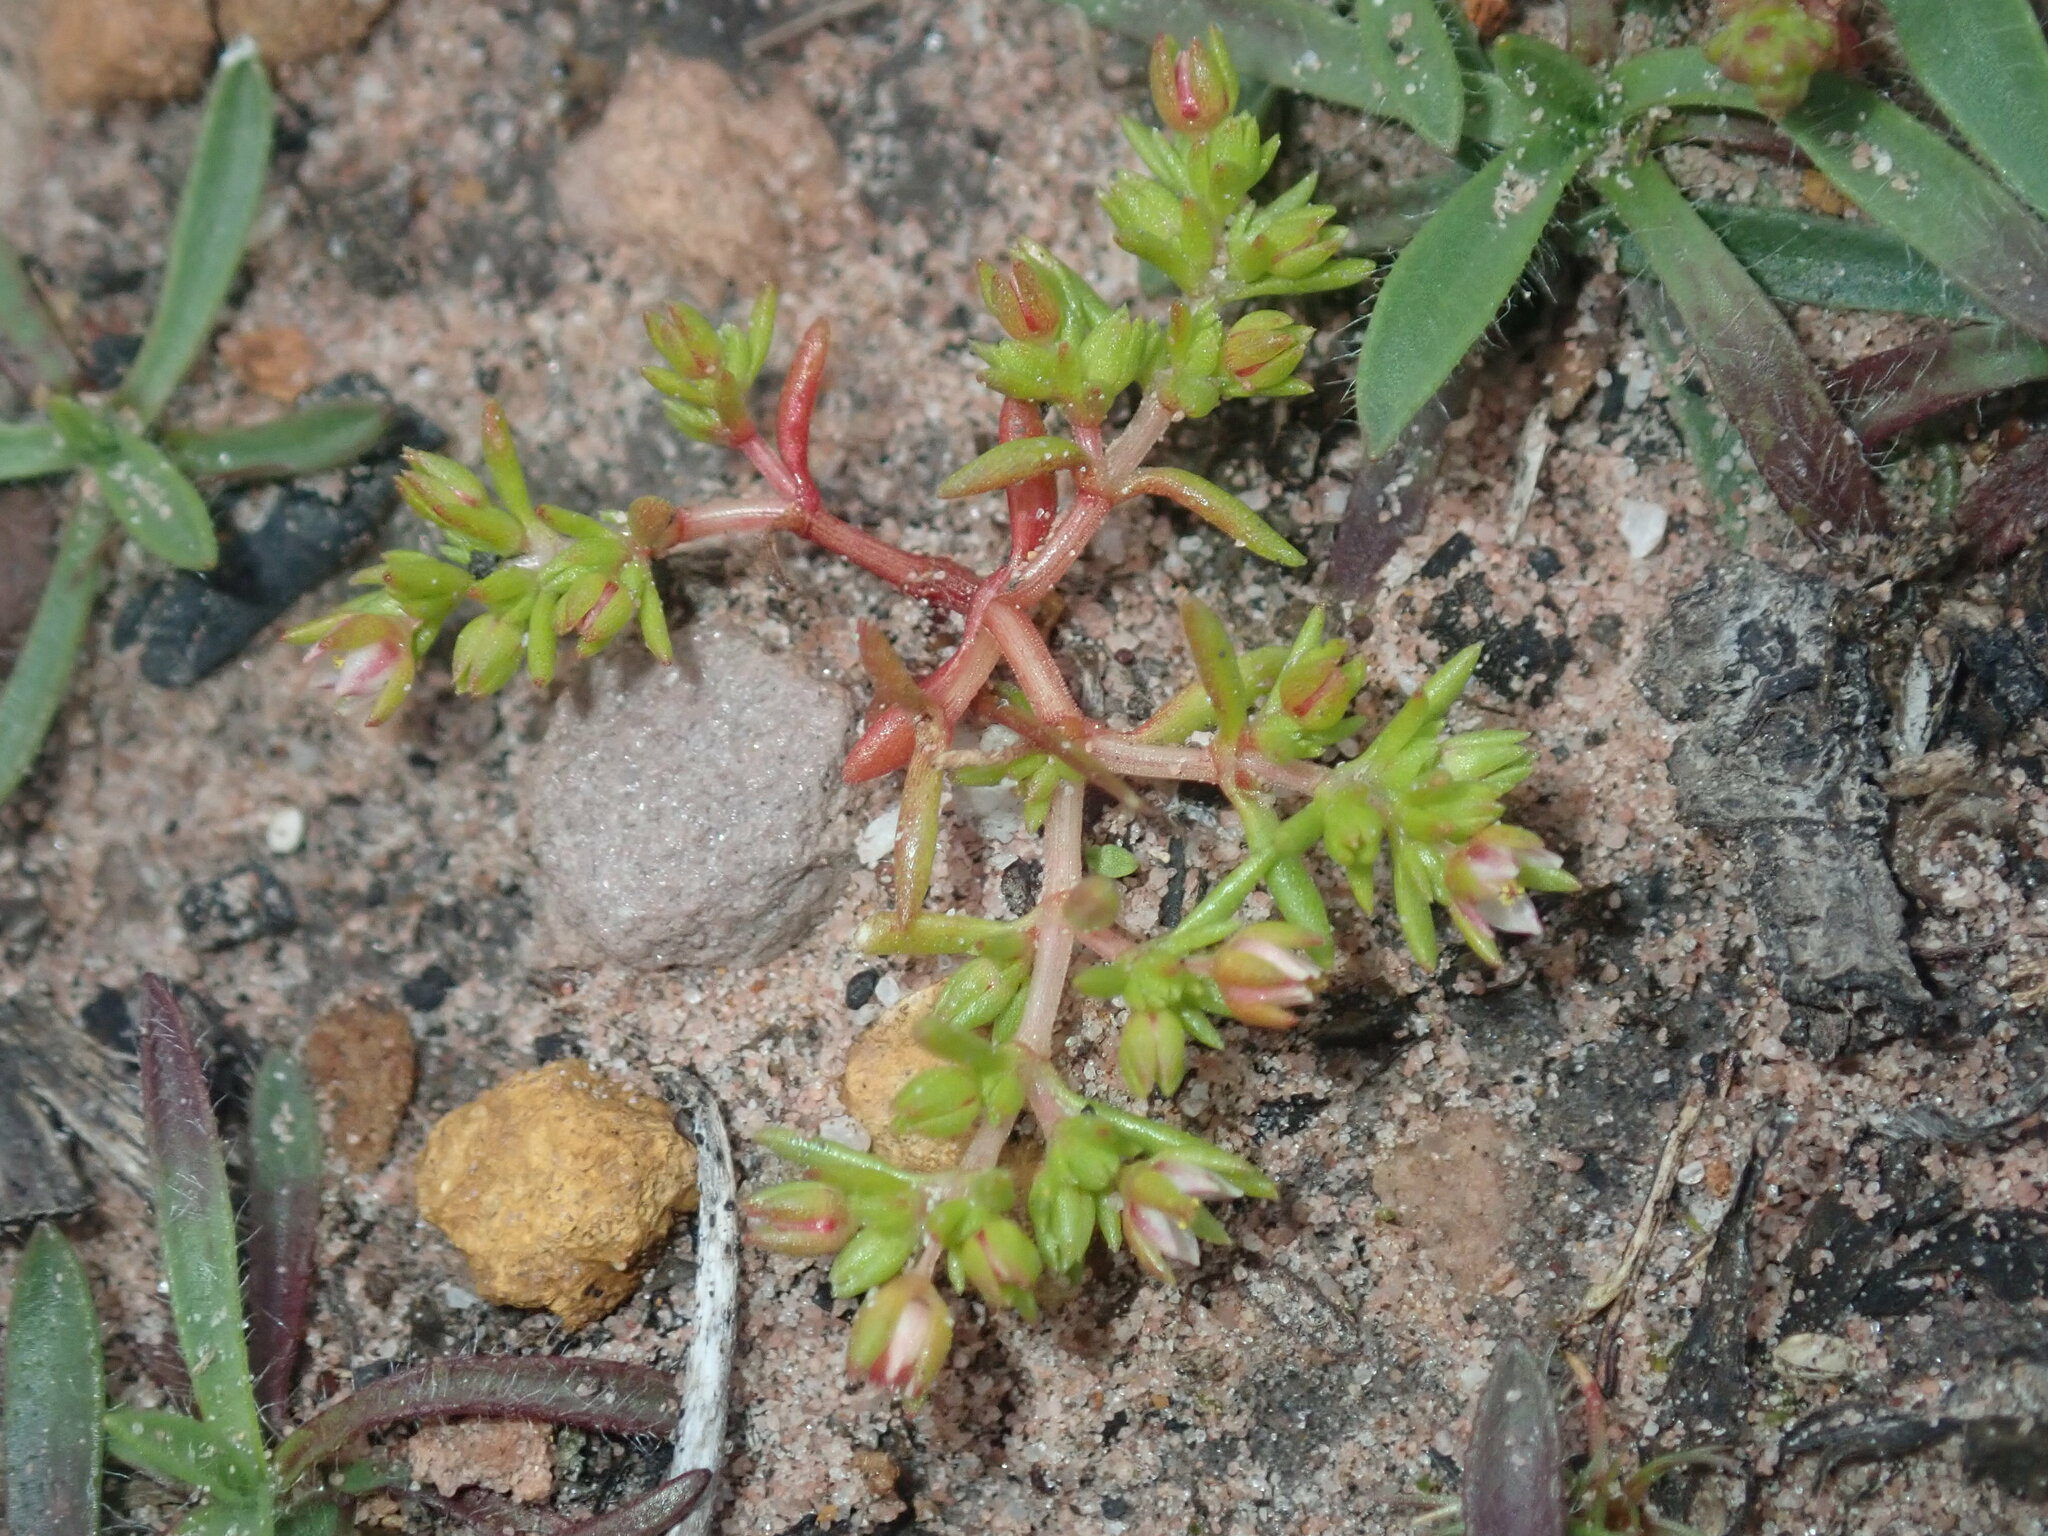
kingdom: Plantae
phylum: Tracheophyta
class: Magnoliopsida
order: Saxifragales
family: Crassulaceae
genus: Crassula
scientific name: Crassula decumbens
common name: Scilly pigmyweed
